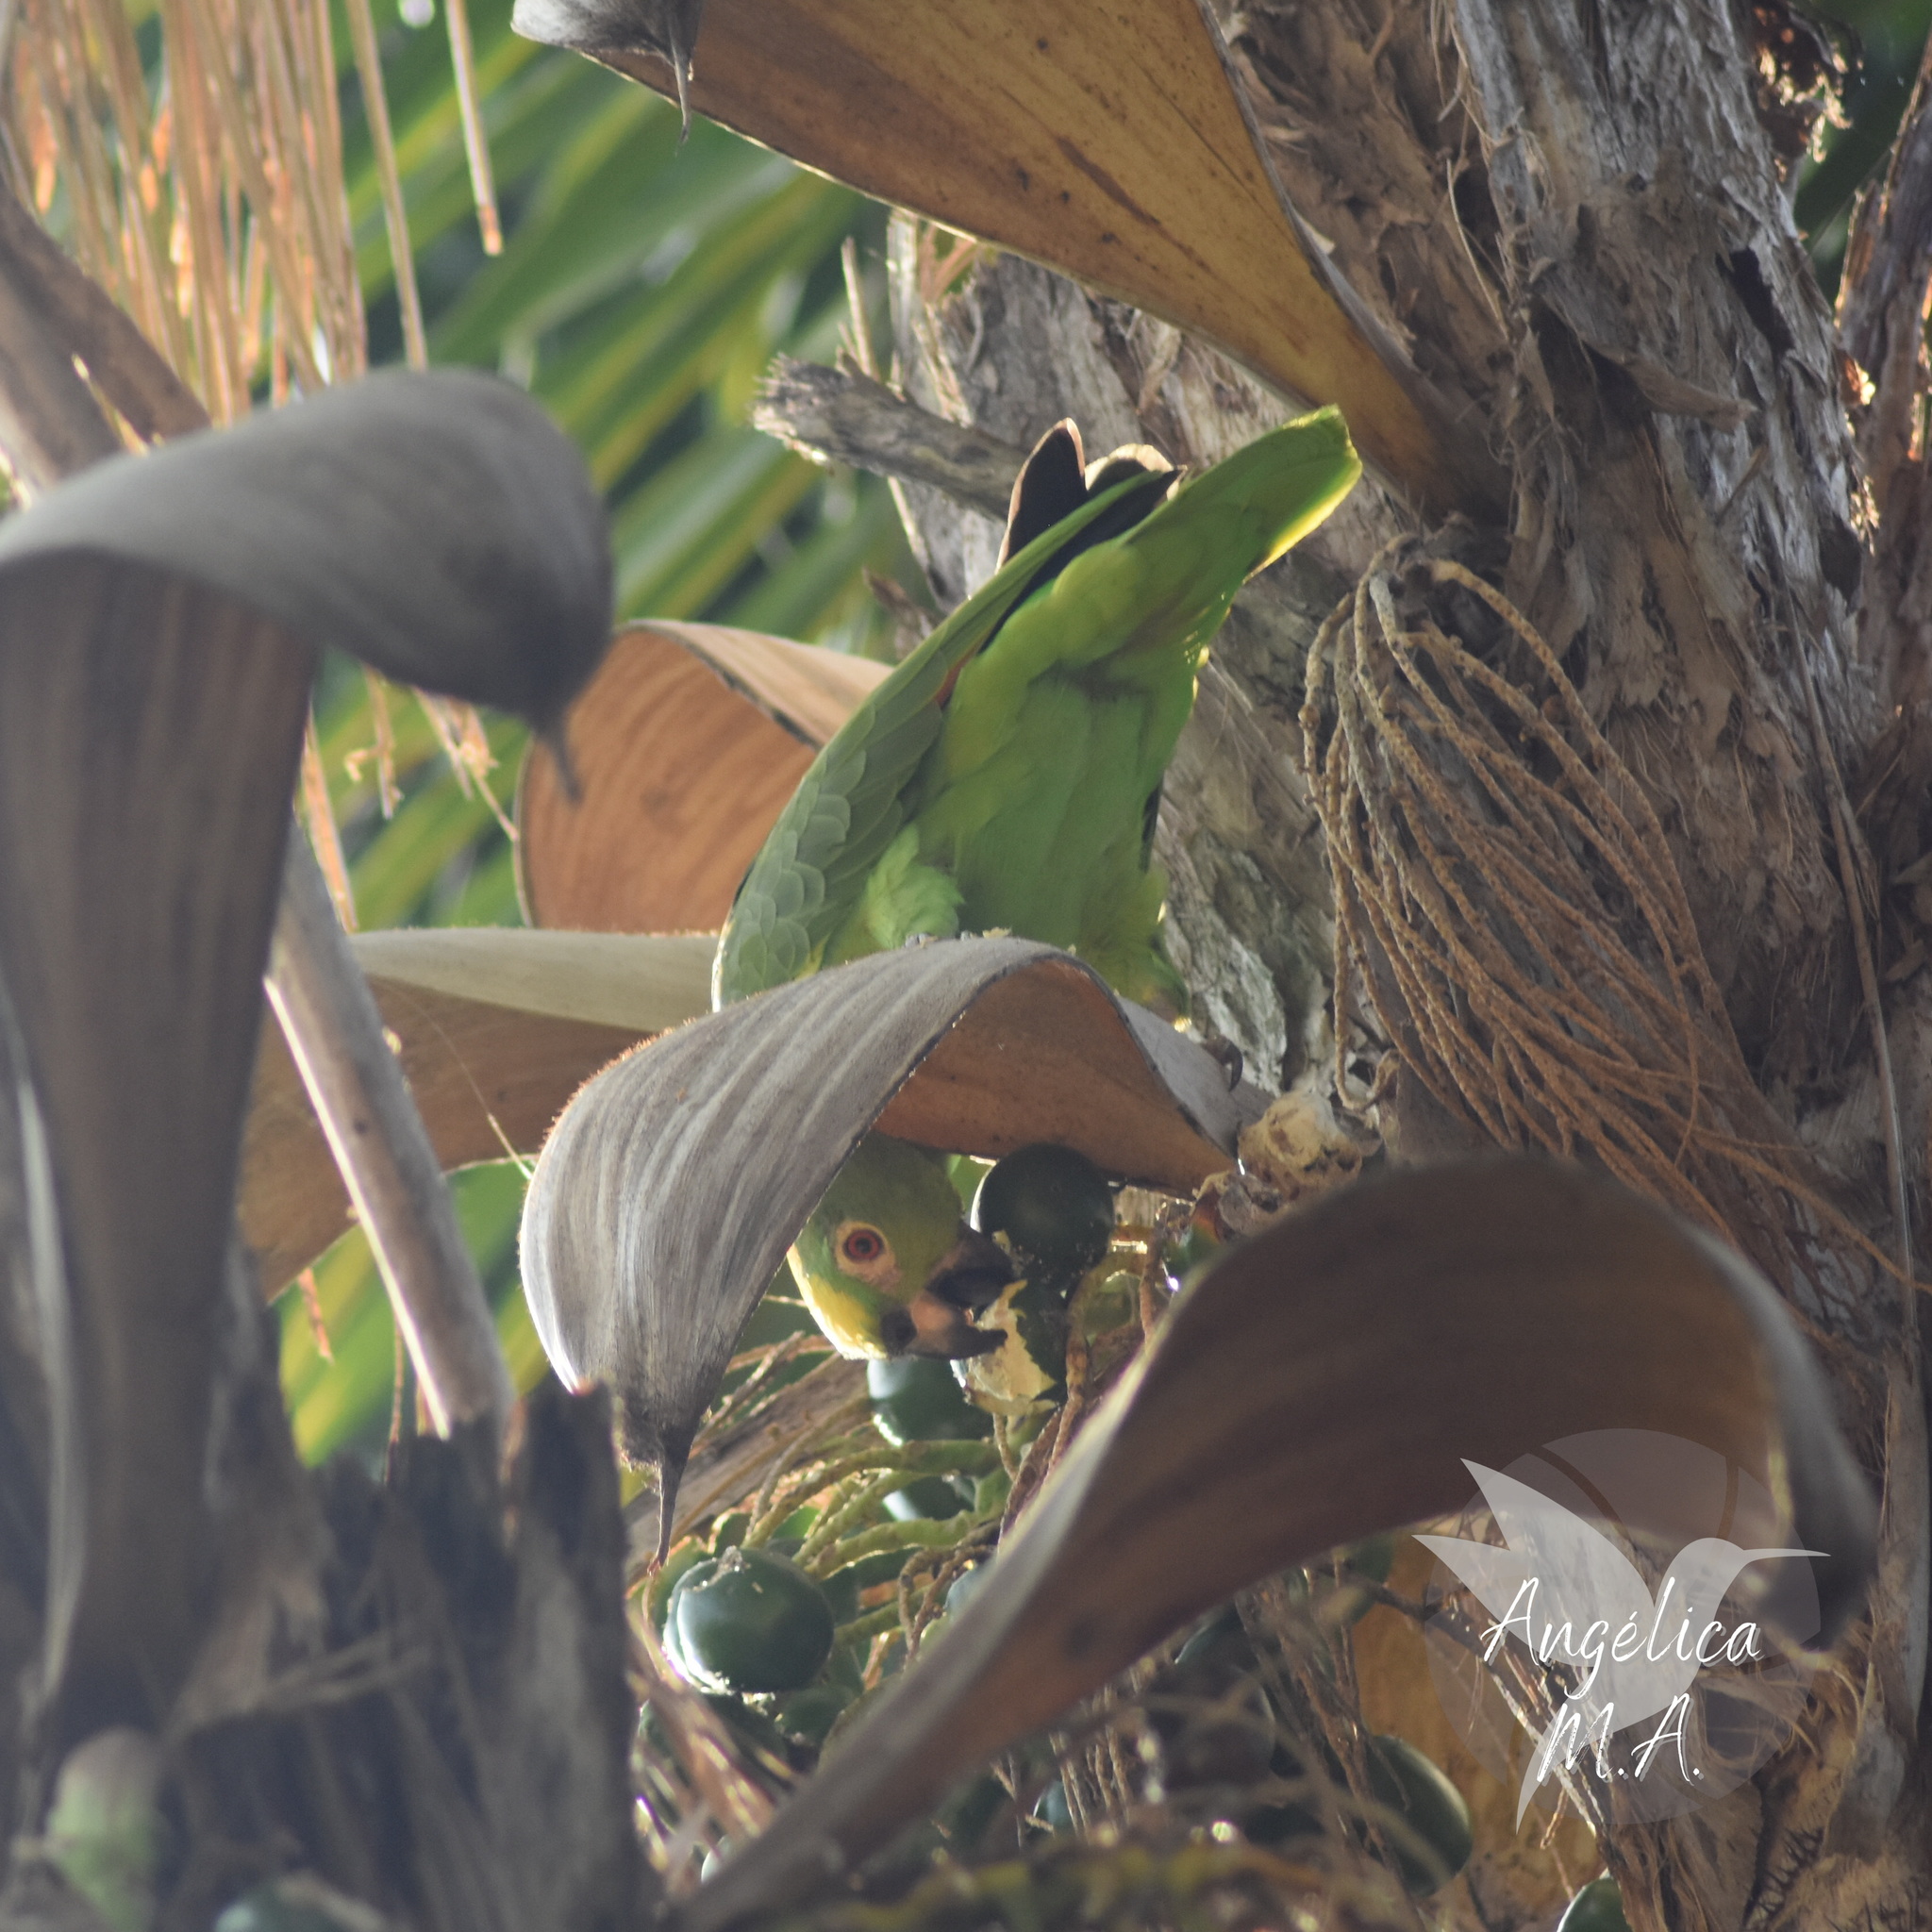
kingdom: Animalia
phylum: Chordata
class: Aves
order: Psittaciformes
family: Psittacidae
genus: Amazona
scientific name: Amazona ochrocephala
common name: Yellow-crowned amazon
